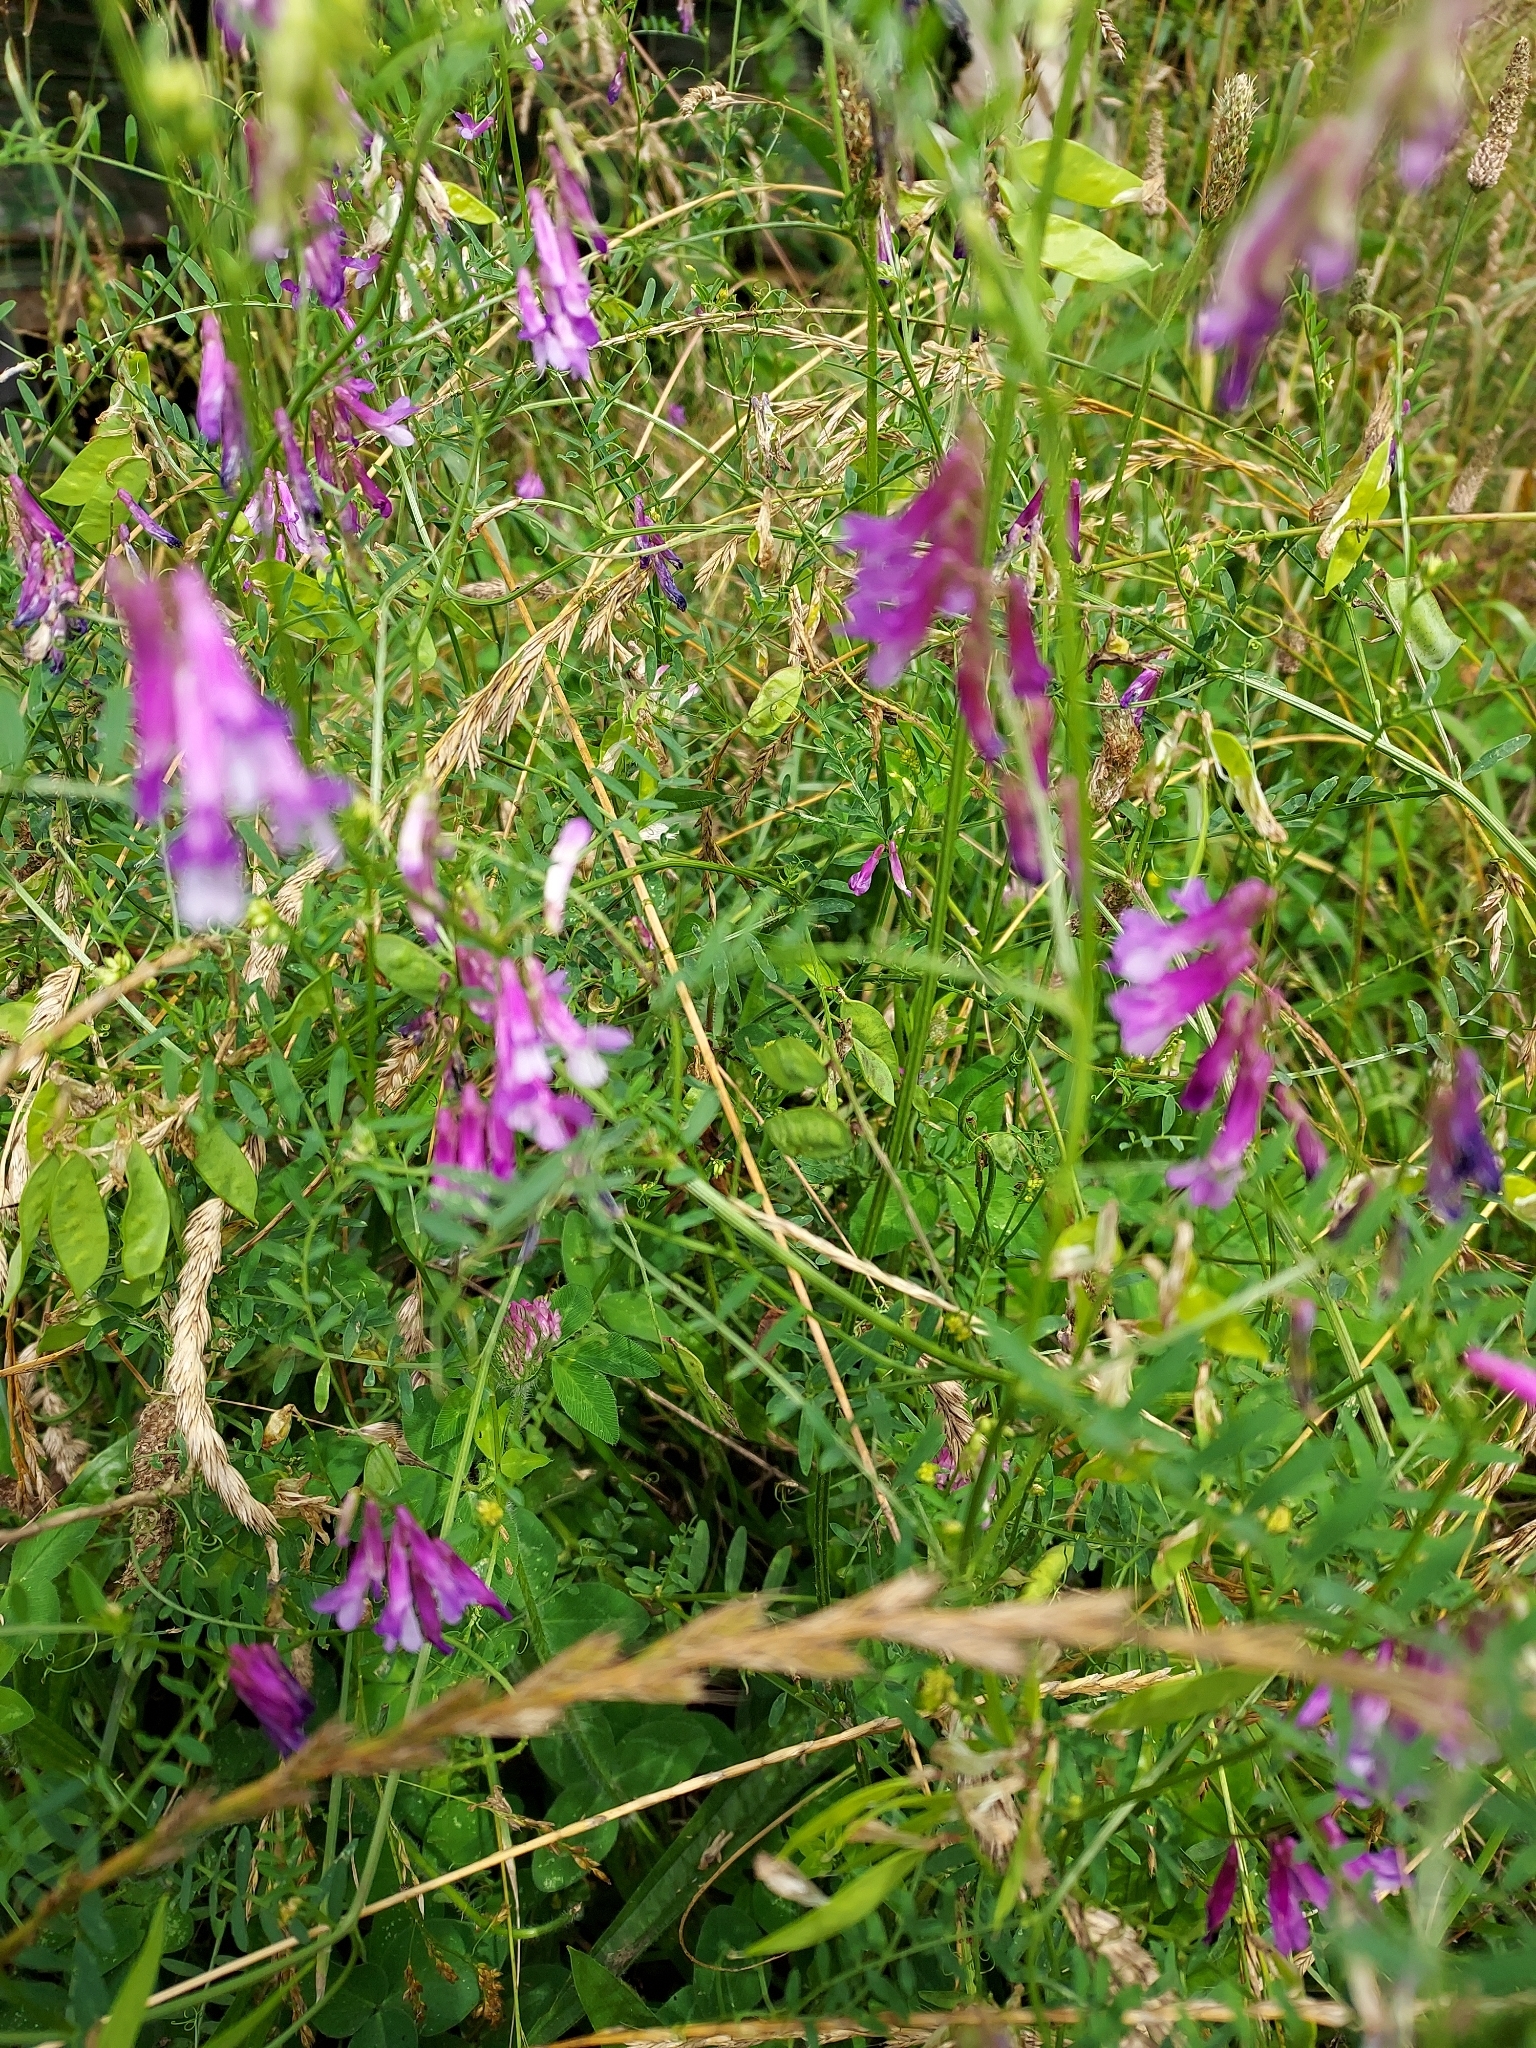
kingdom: Plantae
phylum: Tracheophyta
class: Magnoliopsida
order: Fabales
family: Fabaceae
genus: Vicia
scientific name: Vicia villosa
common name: Fodder vetch
